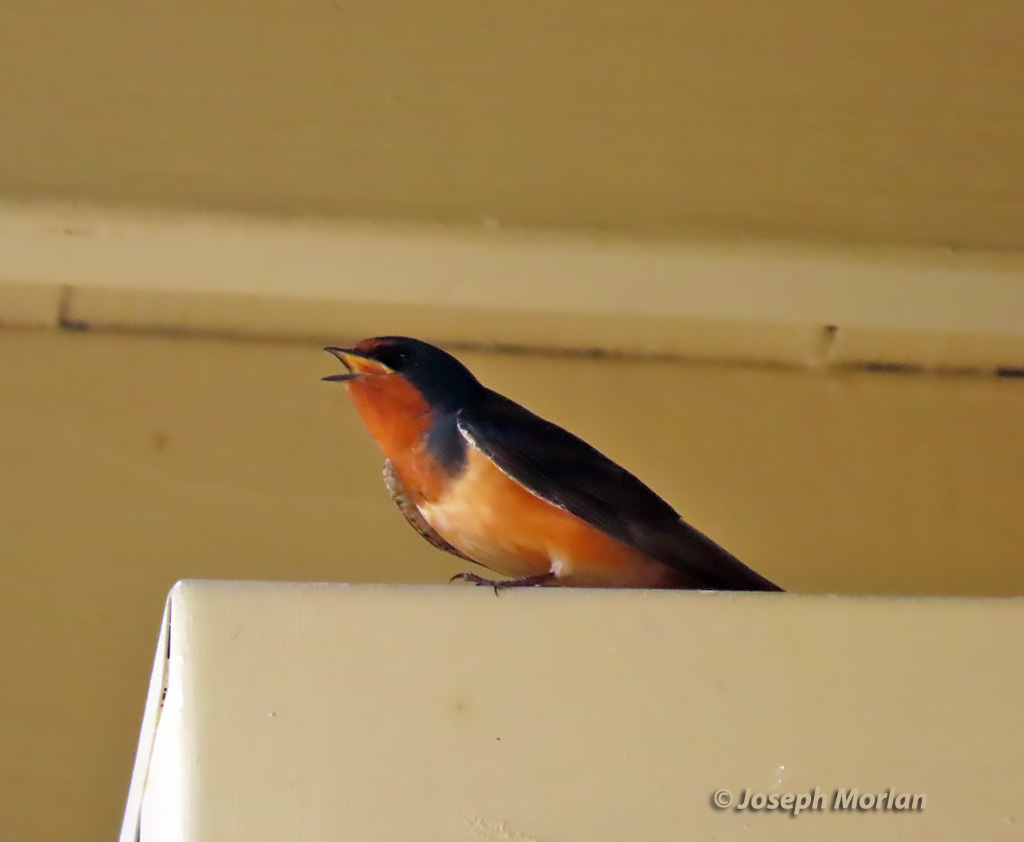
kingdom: Animalia
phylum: Chordata
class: Aves
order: Passeriformes
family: Hirundinidae
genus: Hirundo
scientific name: Hirundo rustica
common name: Barn swallow
